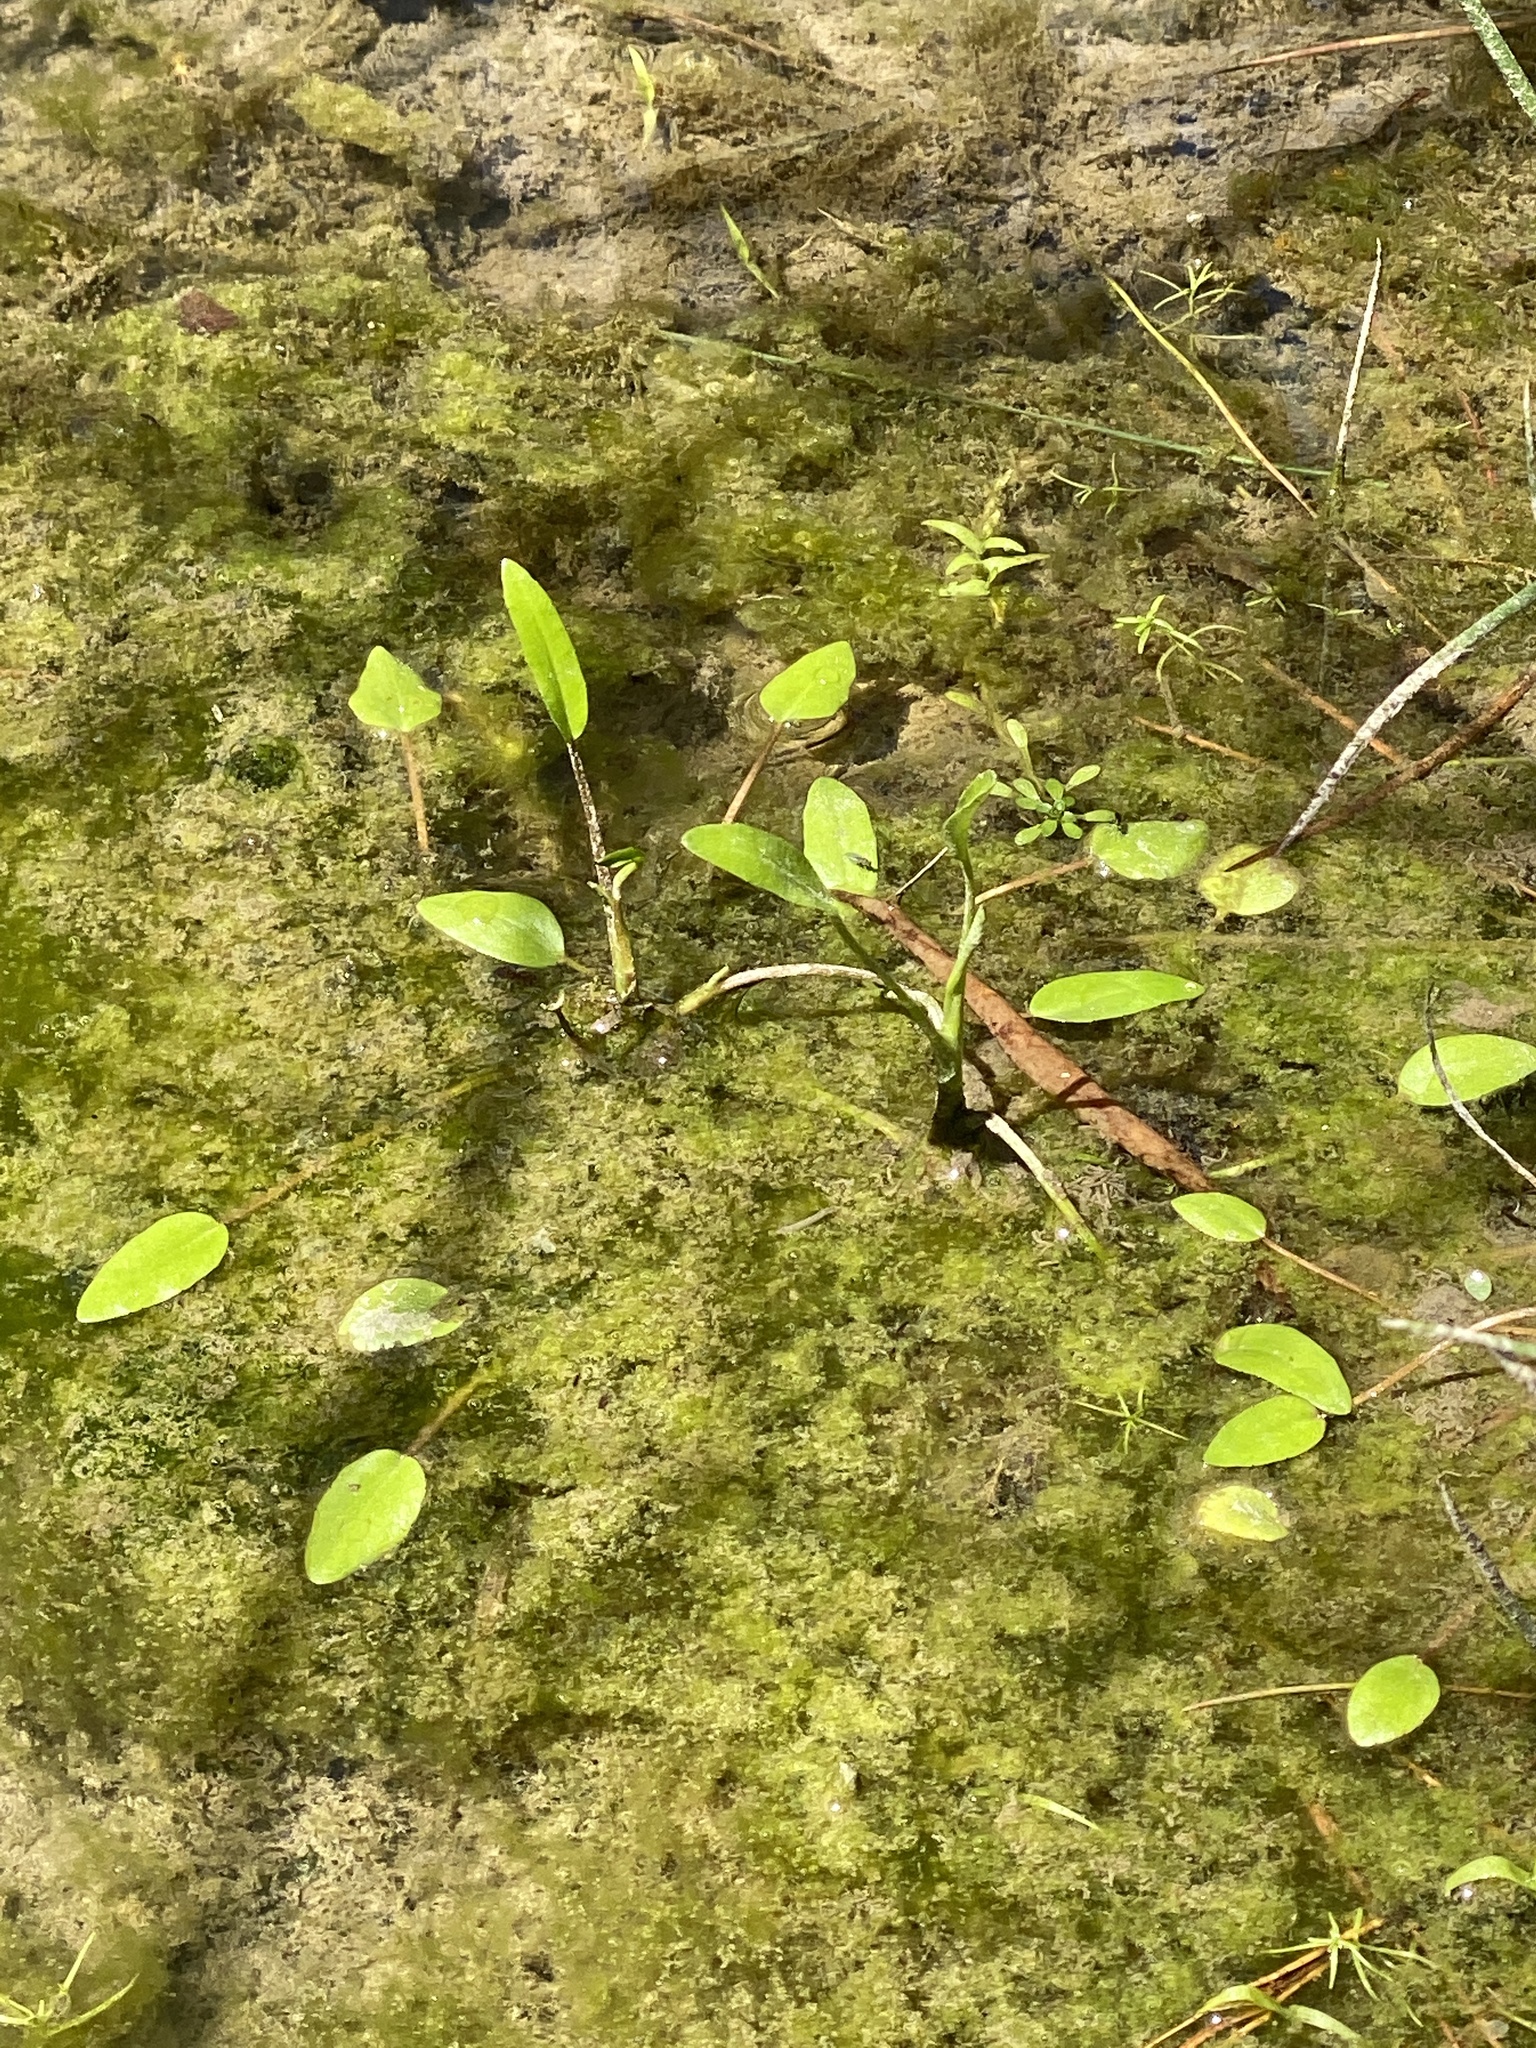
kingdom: Plantae
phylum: Tracheophyta
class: Magnoliopsida
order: Ranunculales
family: Ranunculaceae
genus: Ranunculus
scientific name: Ranunculus pusillus
